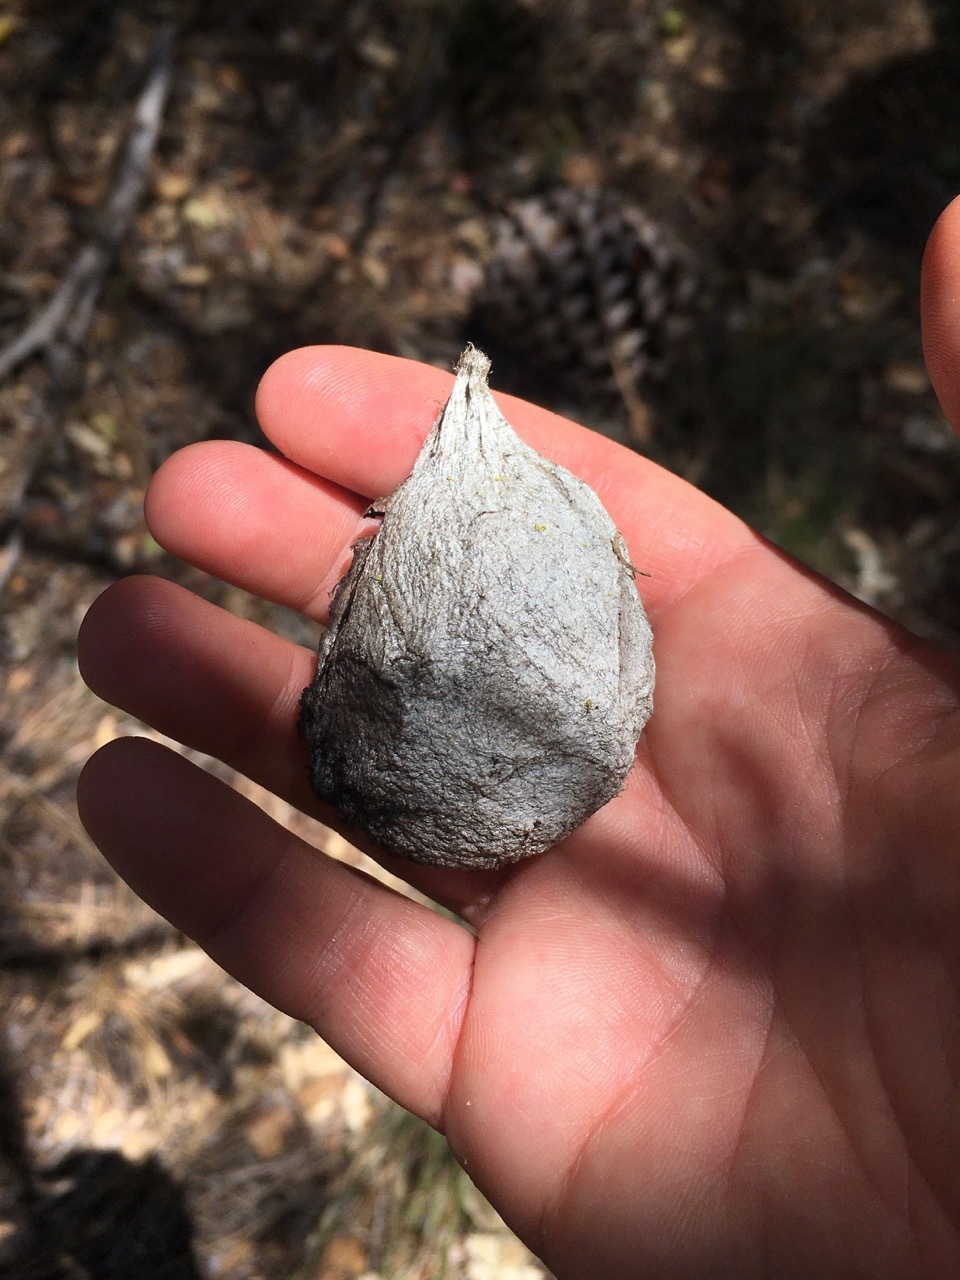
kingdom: Animalia
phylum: Arthropoda
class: Insecta
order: Lepidoptera
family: Saturniidae
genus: Hyalophora
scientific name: Hyalophora euryalus
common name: Ceanothus silkmoth
